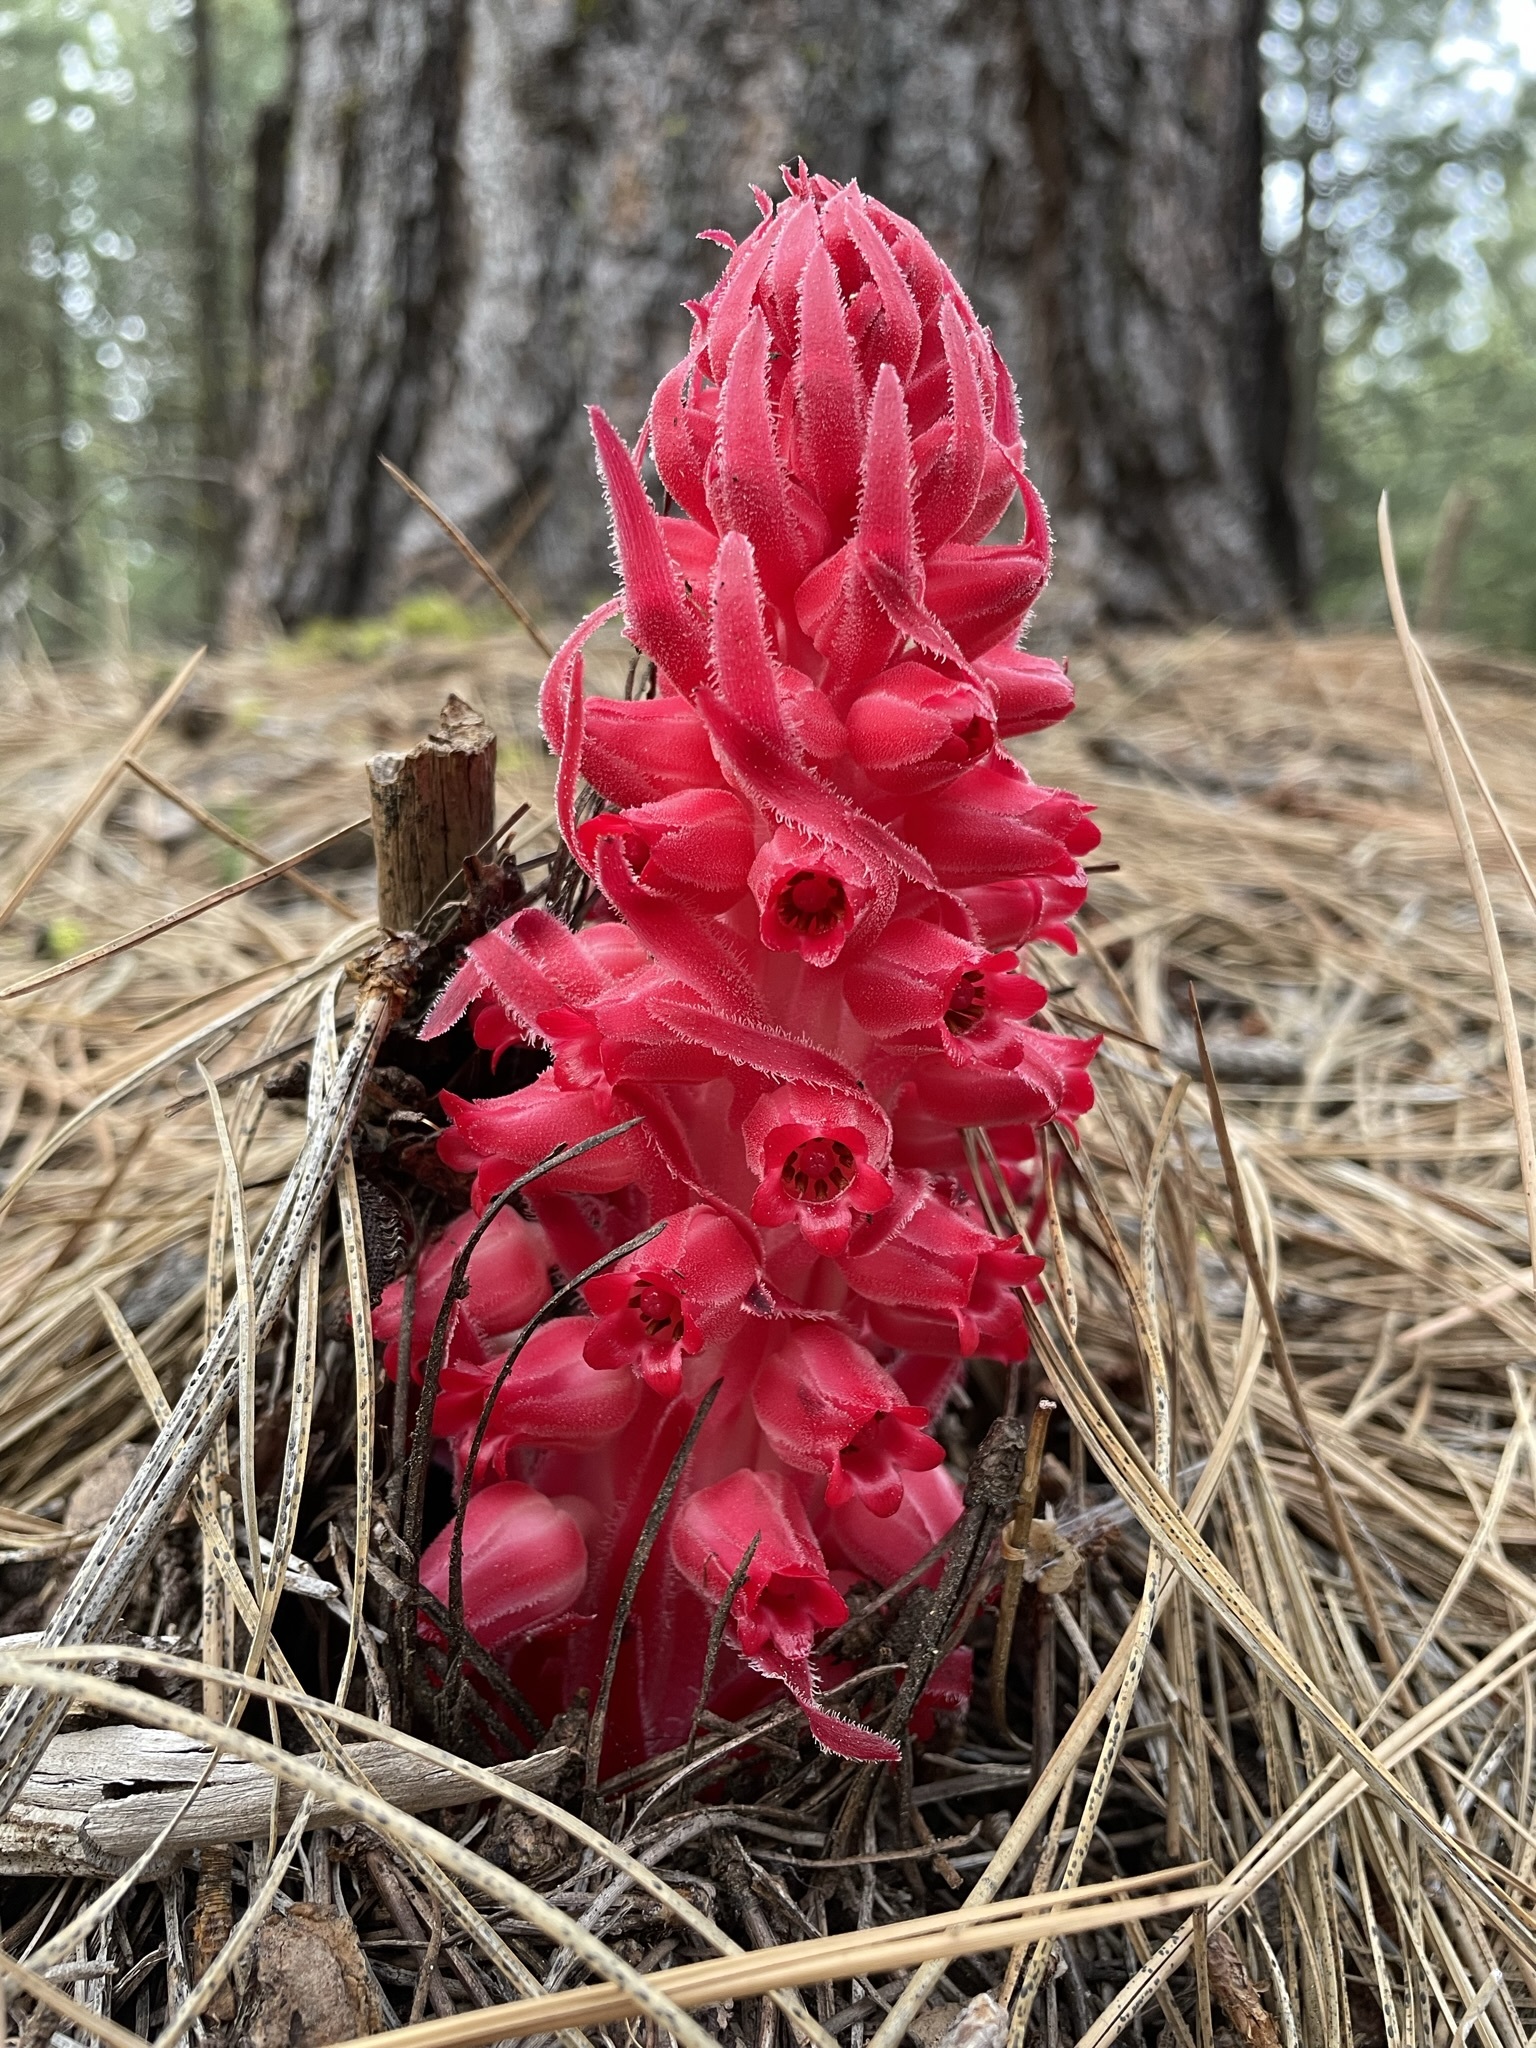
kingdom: Plantae
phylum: Tracheophyta
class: Magnoliopsida
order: Ericales
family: Ericaceae
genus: Sarcodes
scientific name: Sarcodes sanguinea
